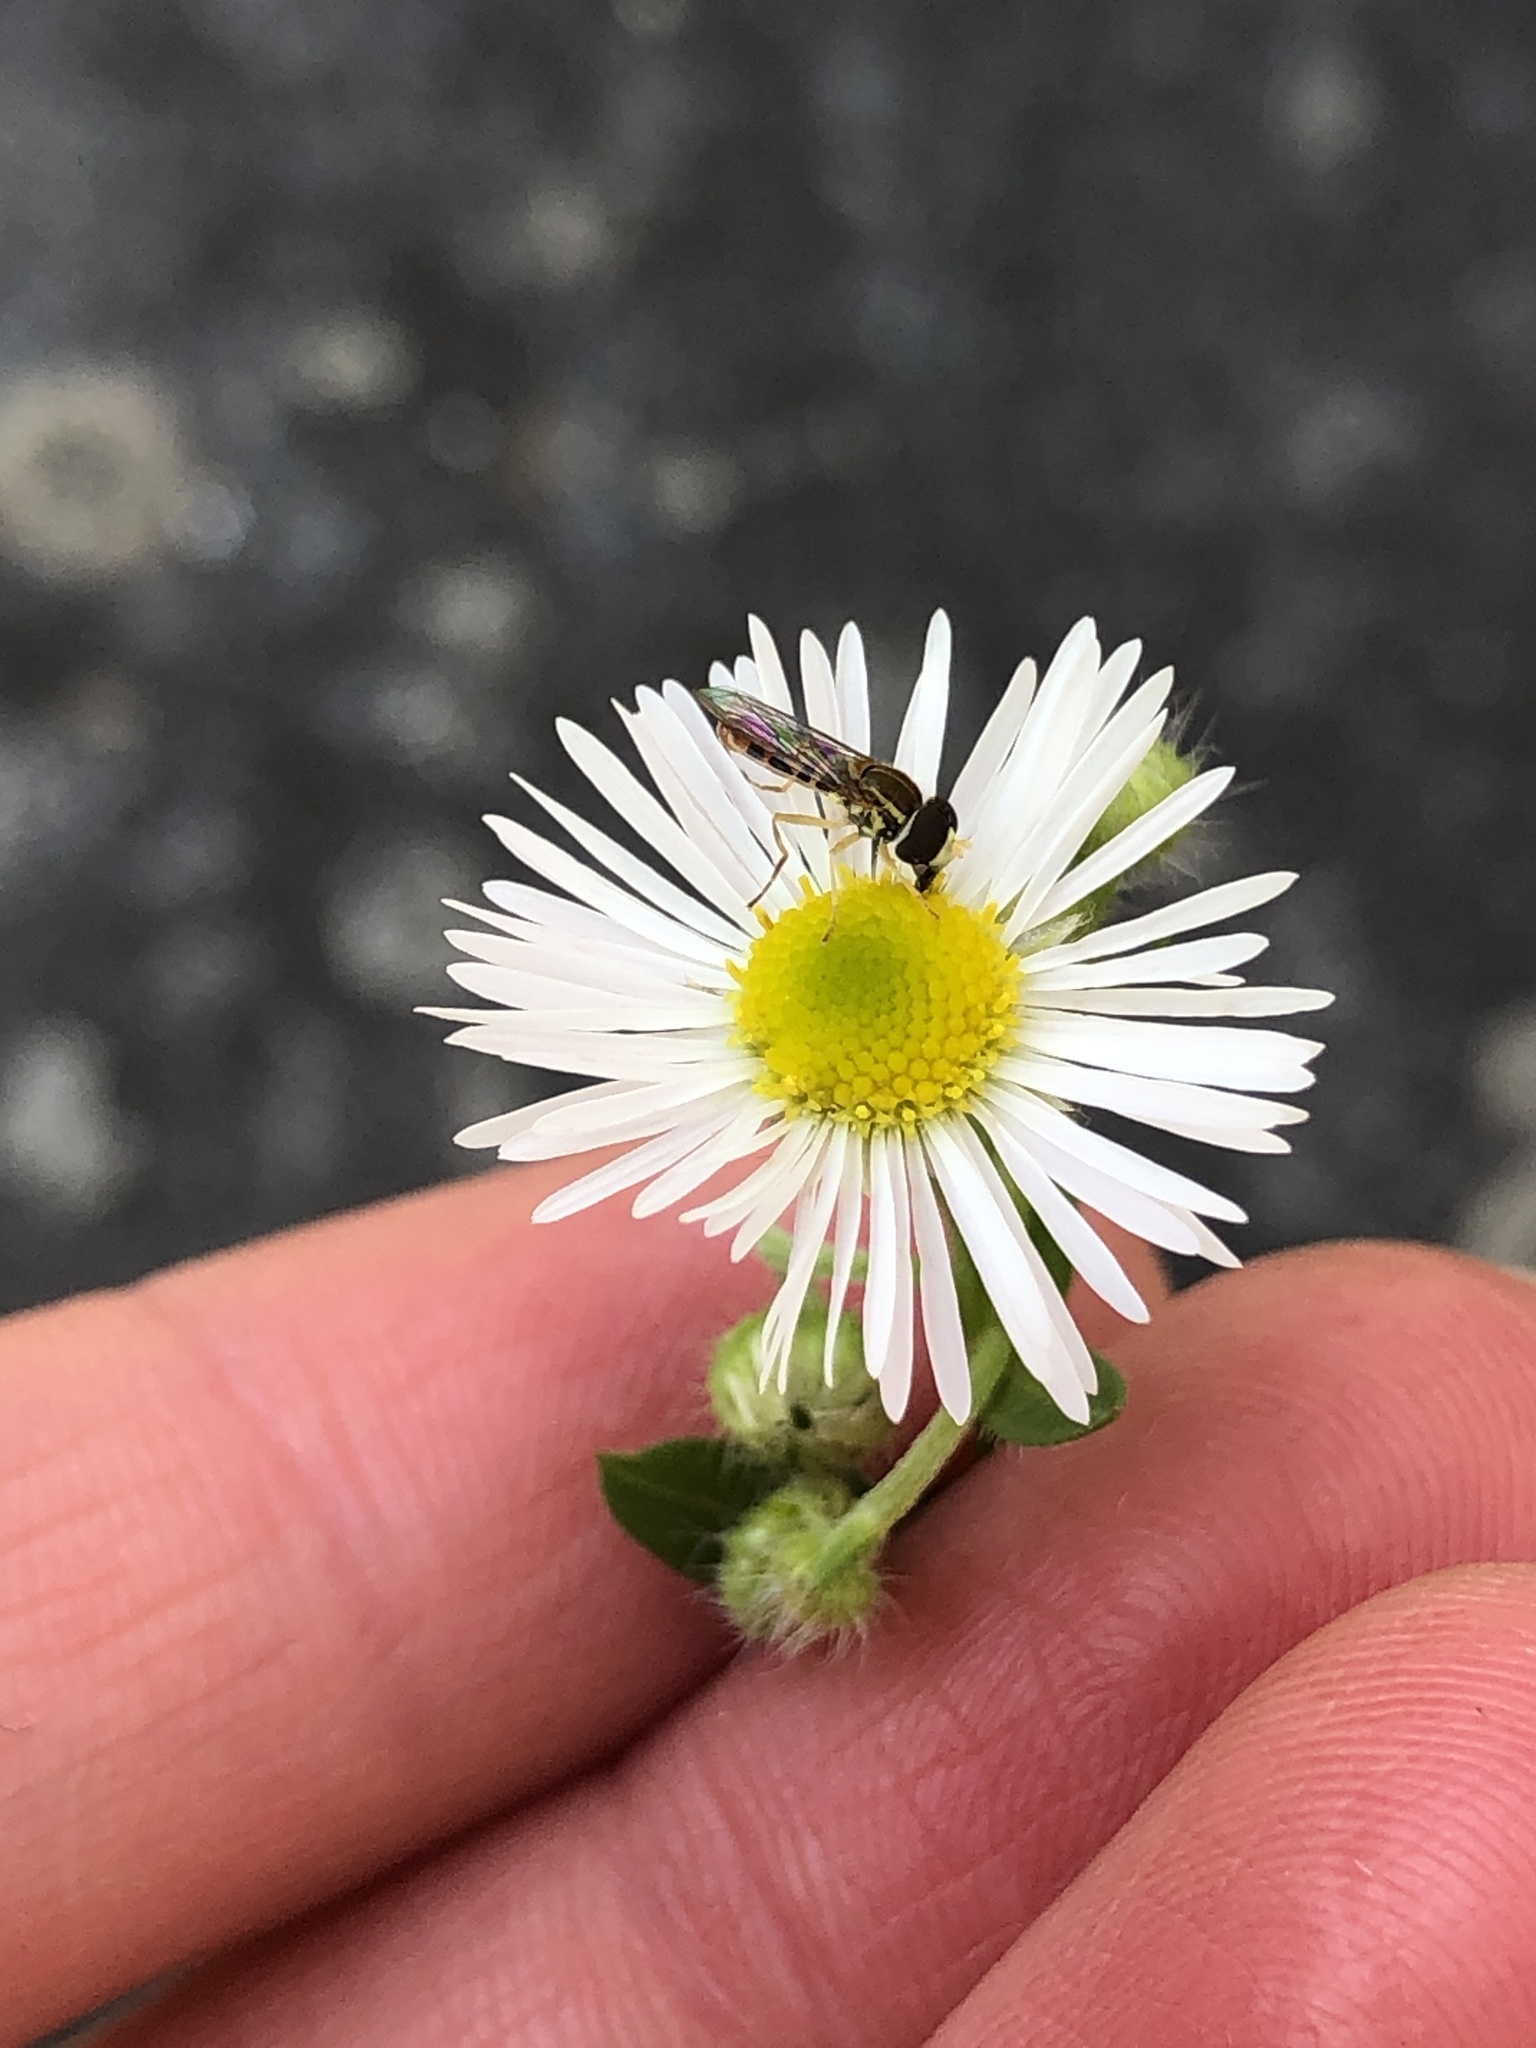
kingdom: Animalia
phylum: Arthropoda
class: Insecta
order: Diptera
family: Syrphidae
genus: Toxomerus
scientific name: Toxomerus marginatus
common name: Syrphid fly
